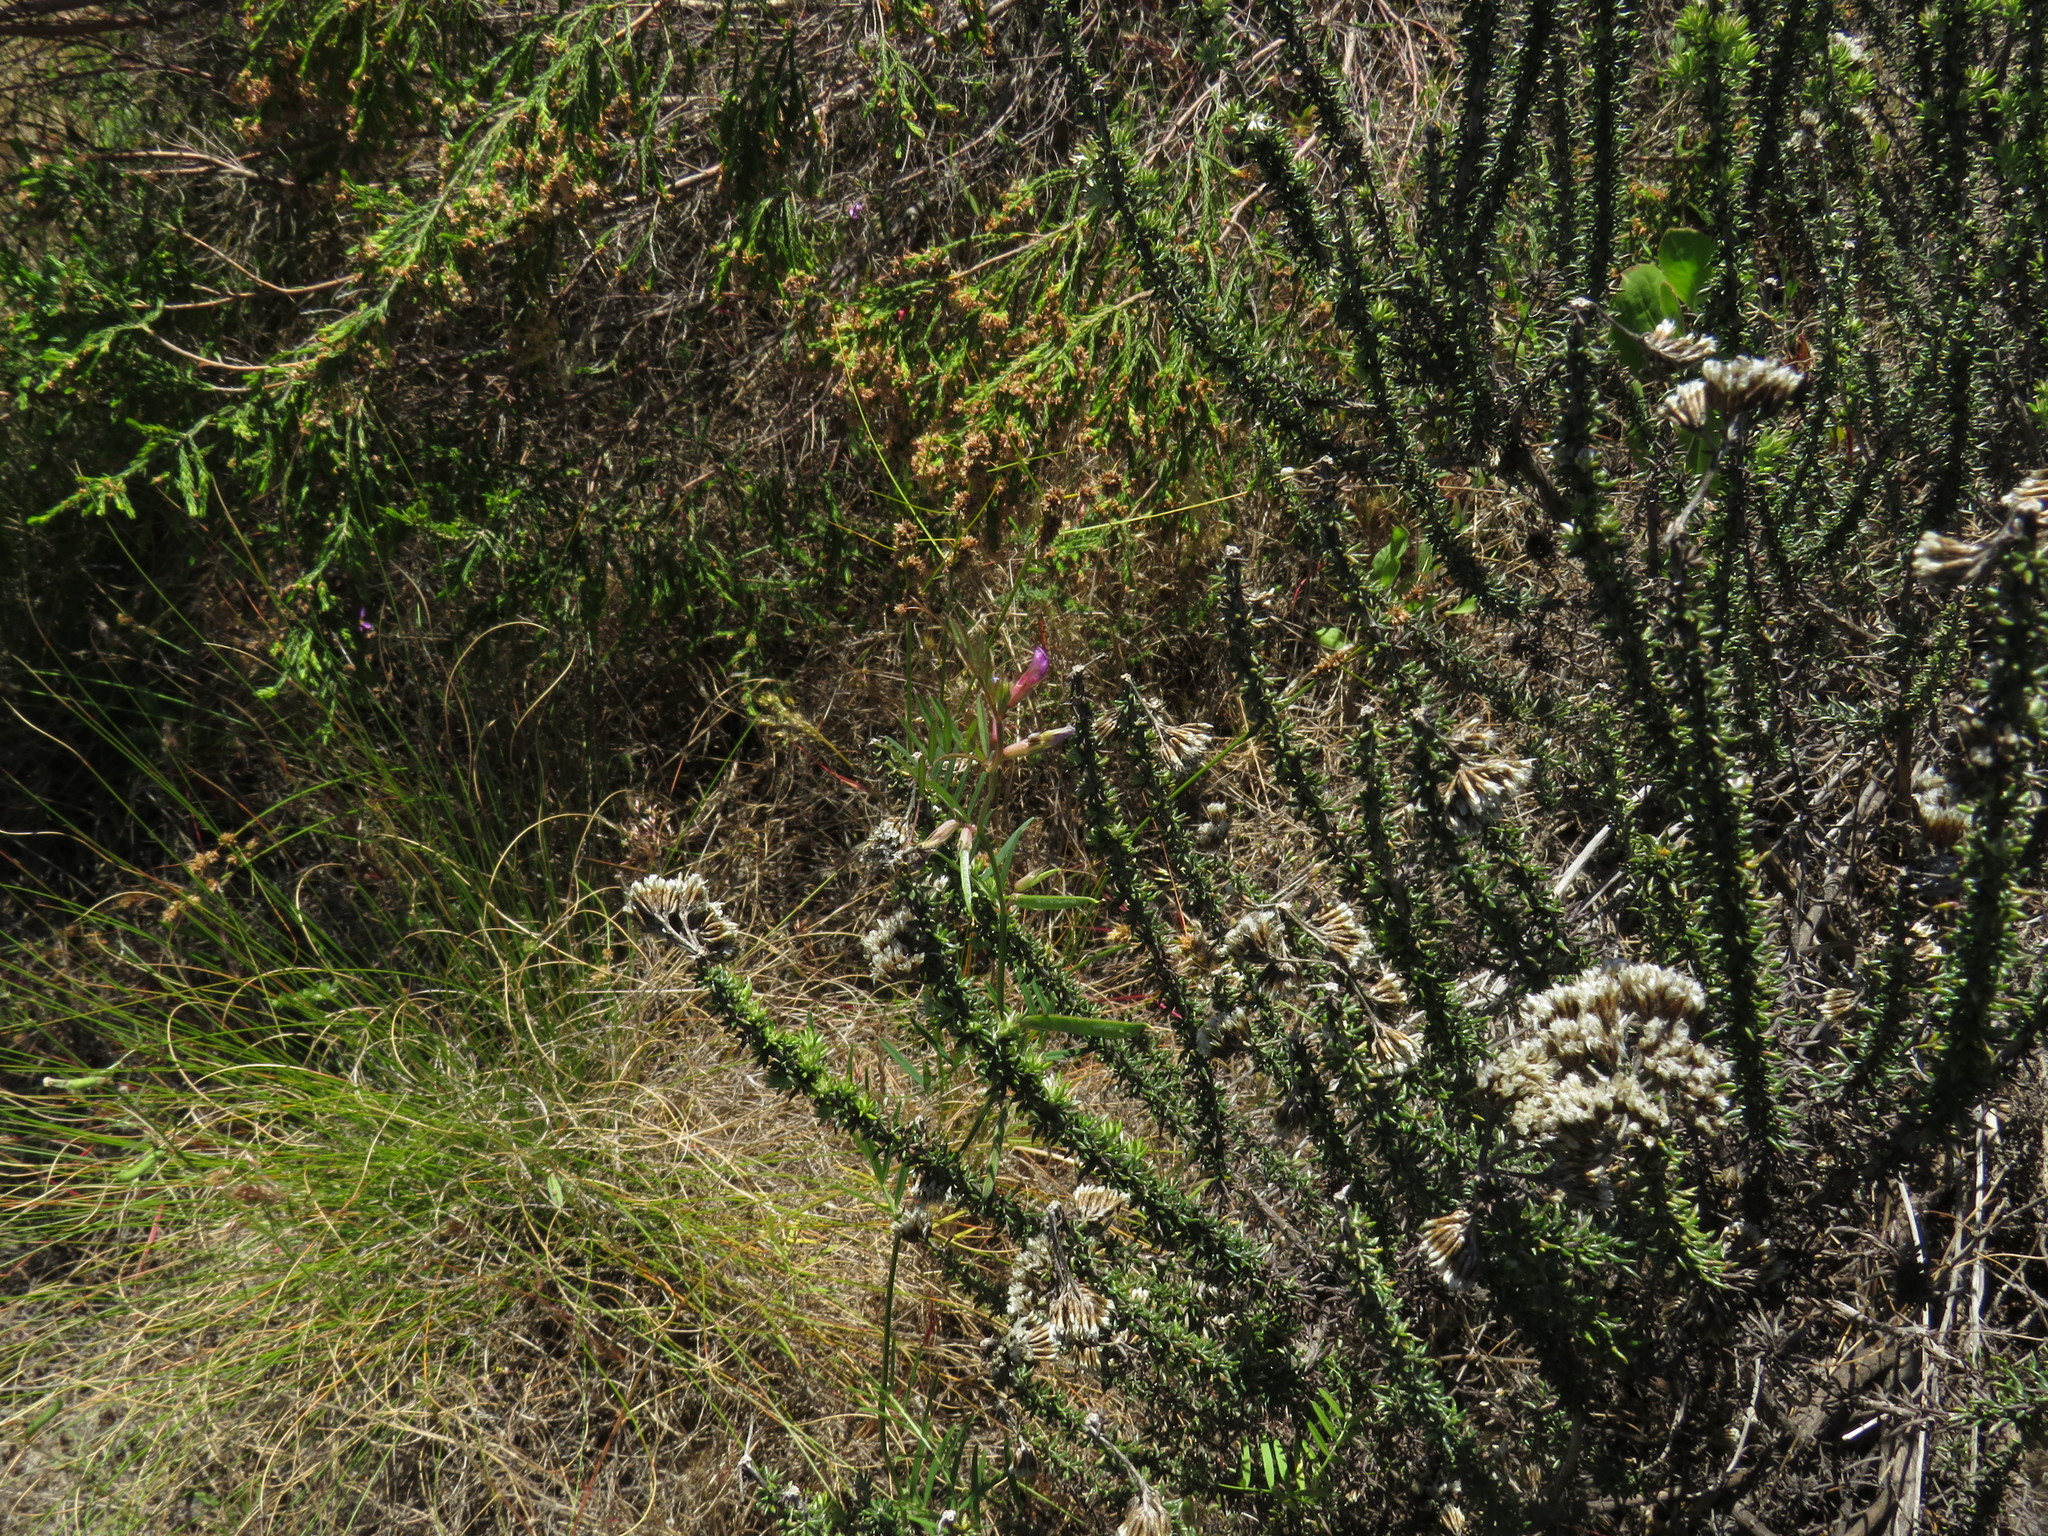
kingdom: Plantae
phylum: Tracheophyta
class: Magnoliopsida
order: Fabales
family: Fabaceae
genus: Vicia
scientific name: Vicia sativa
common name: Garden vetch
